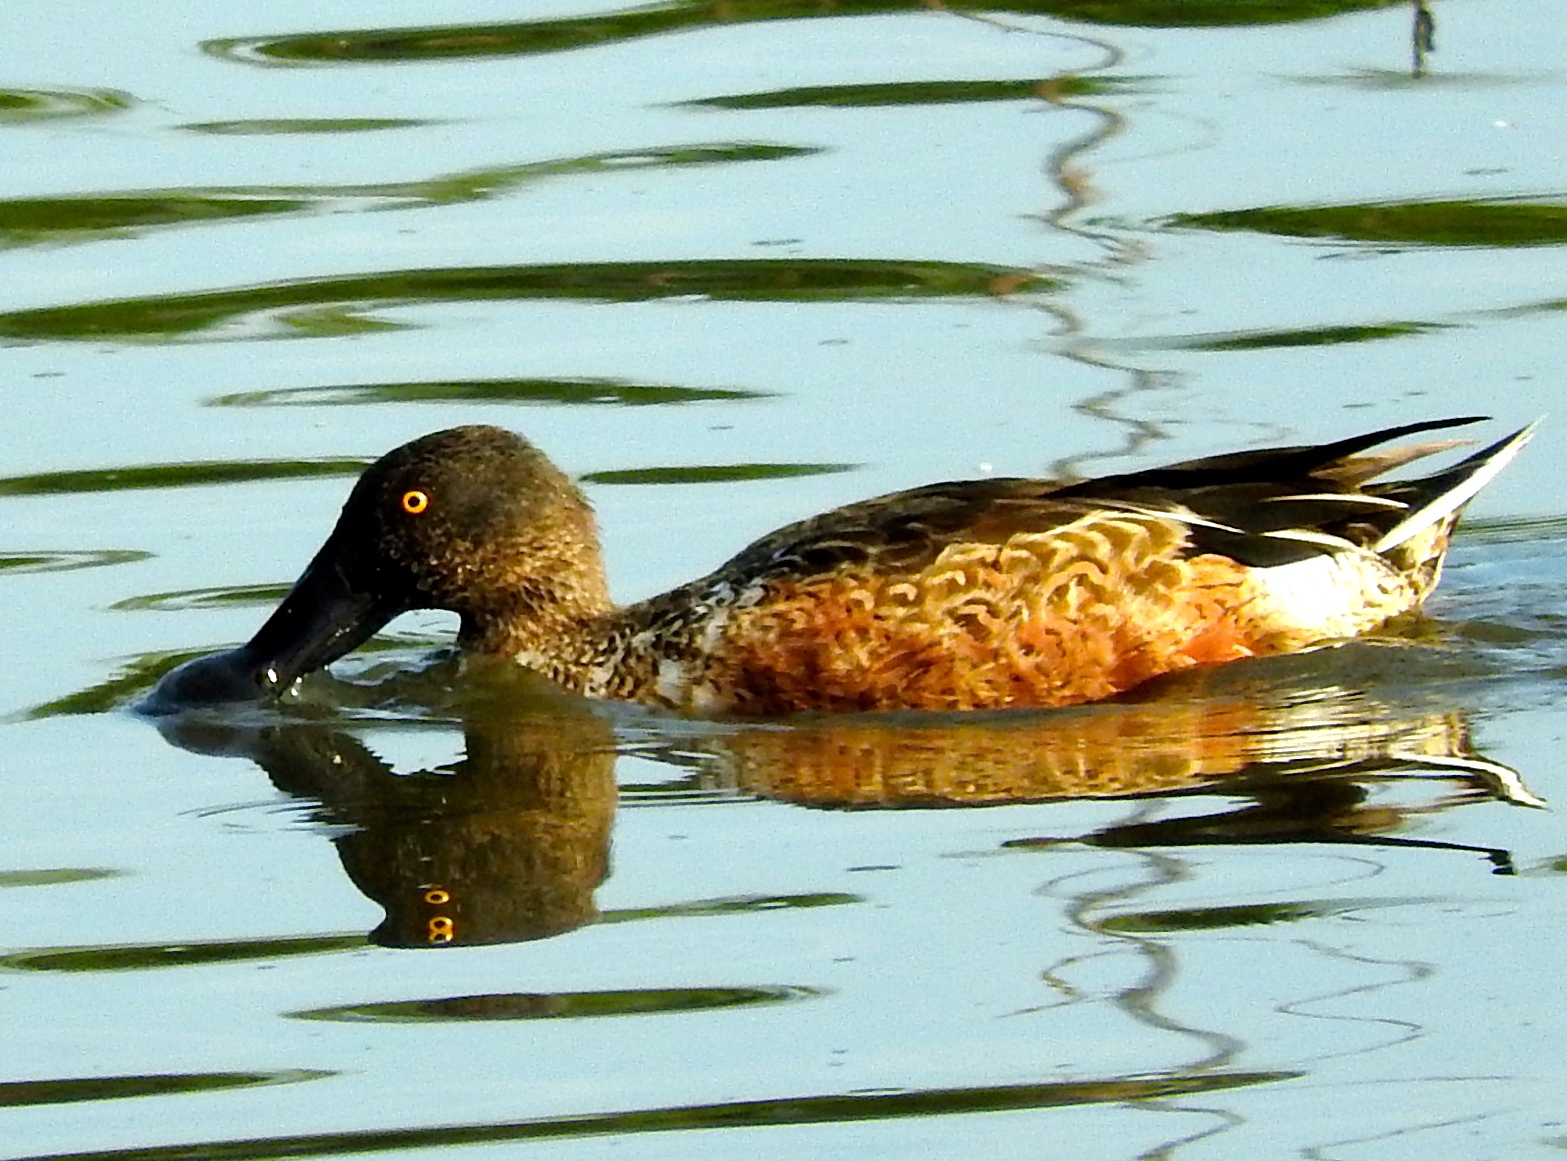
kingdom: Animalia
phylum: Chordata
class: Aves
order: Anseriformes
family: Anatidae
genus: Spatula
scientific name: Spatula clypeata
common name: Northern shoveler
